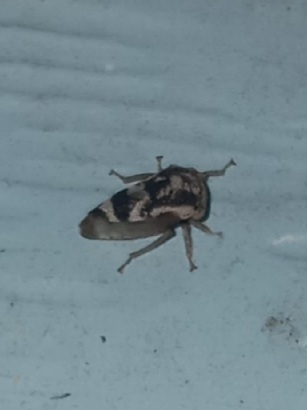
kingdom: Animalia
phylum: Arthropoda
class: Insecta
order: Hemiptera
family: Membracidae
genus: Cyrtolobus
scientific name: Cyrtolobus pallidifrontis
